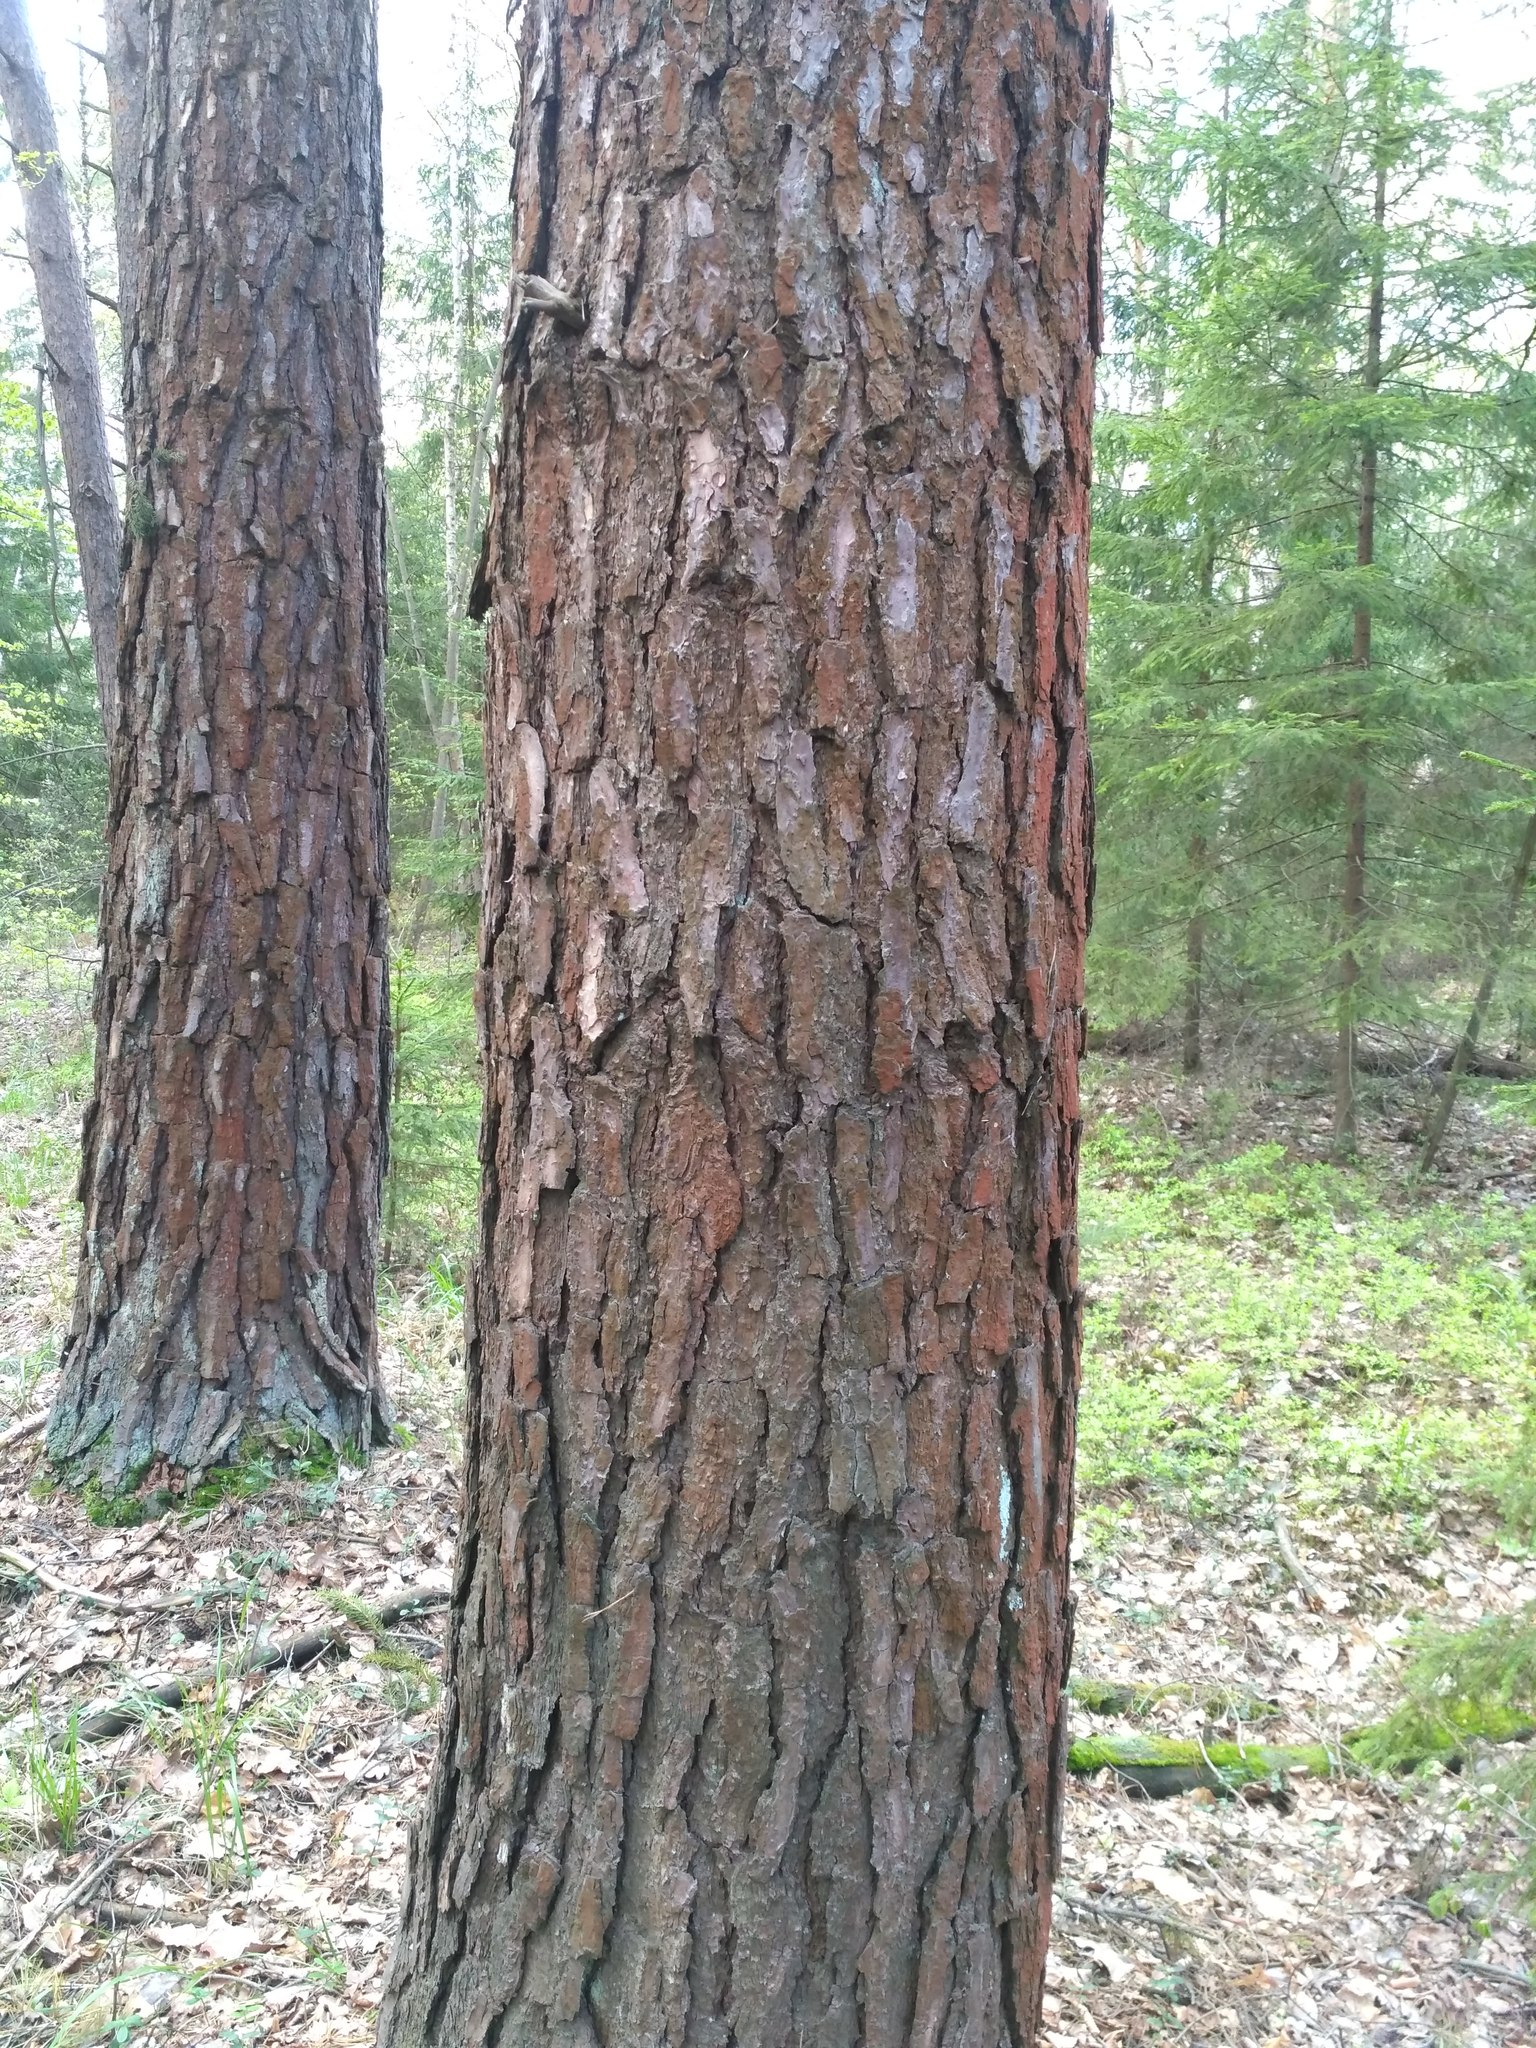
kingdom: Plantae
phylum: Tracheophyta
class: Pinopsida
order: Pinales
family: Pinaceae
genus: Pinus
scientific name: Pinus sylvestris
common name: Scots pine
